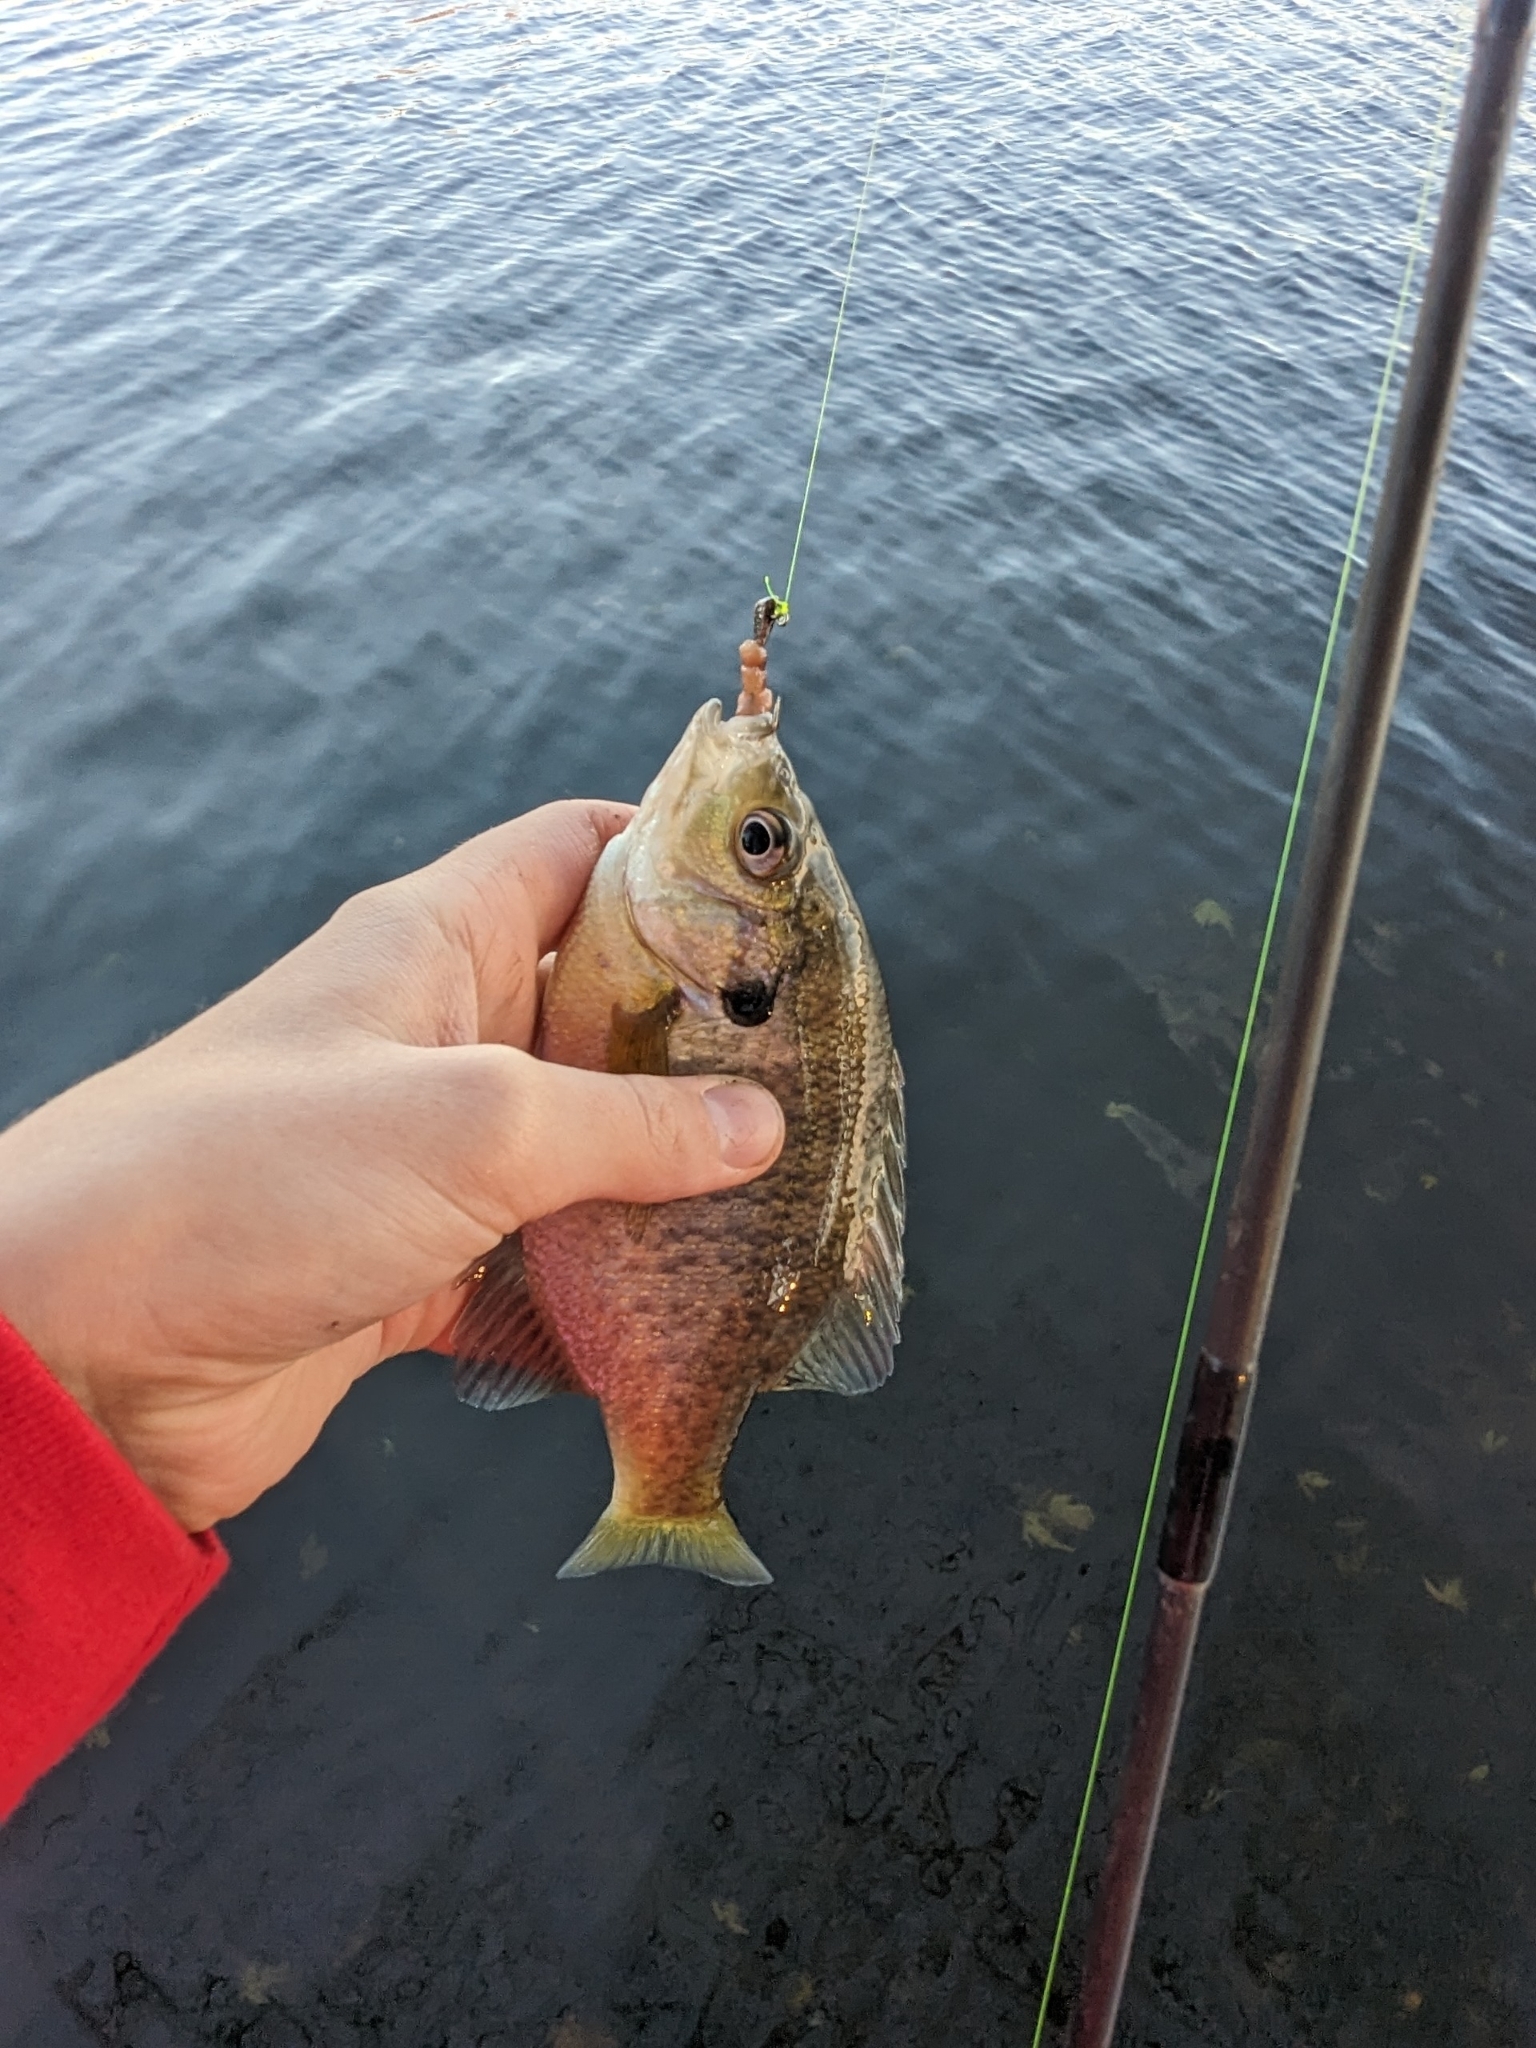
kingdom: Animalia
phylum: Chordata
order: Perciformes
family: Centrarchidae
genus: Lepomis
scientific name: Lepomis macrochirus
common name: Bluegill
